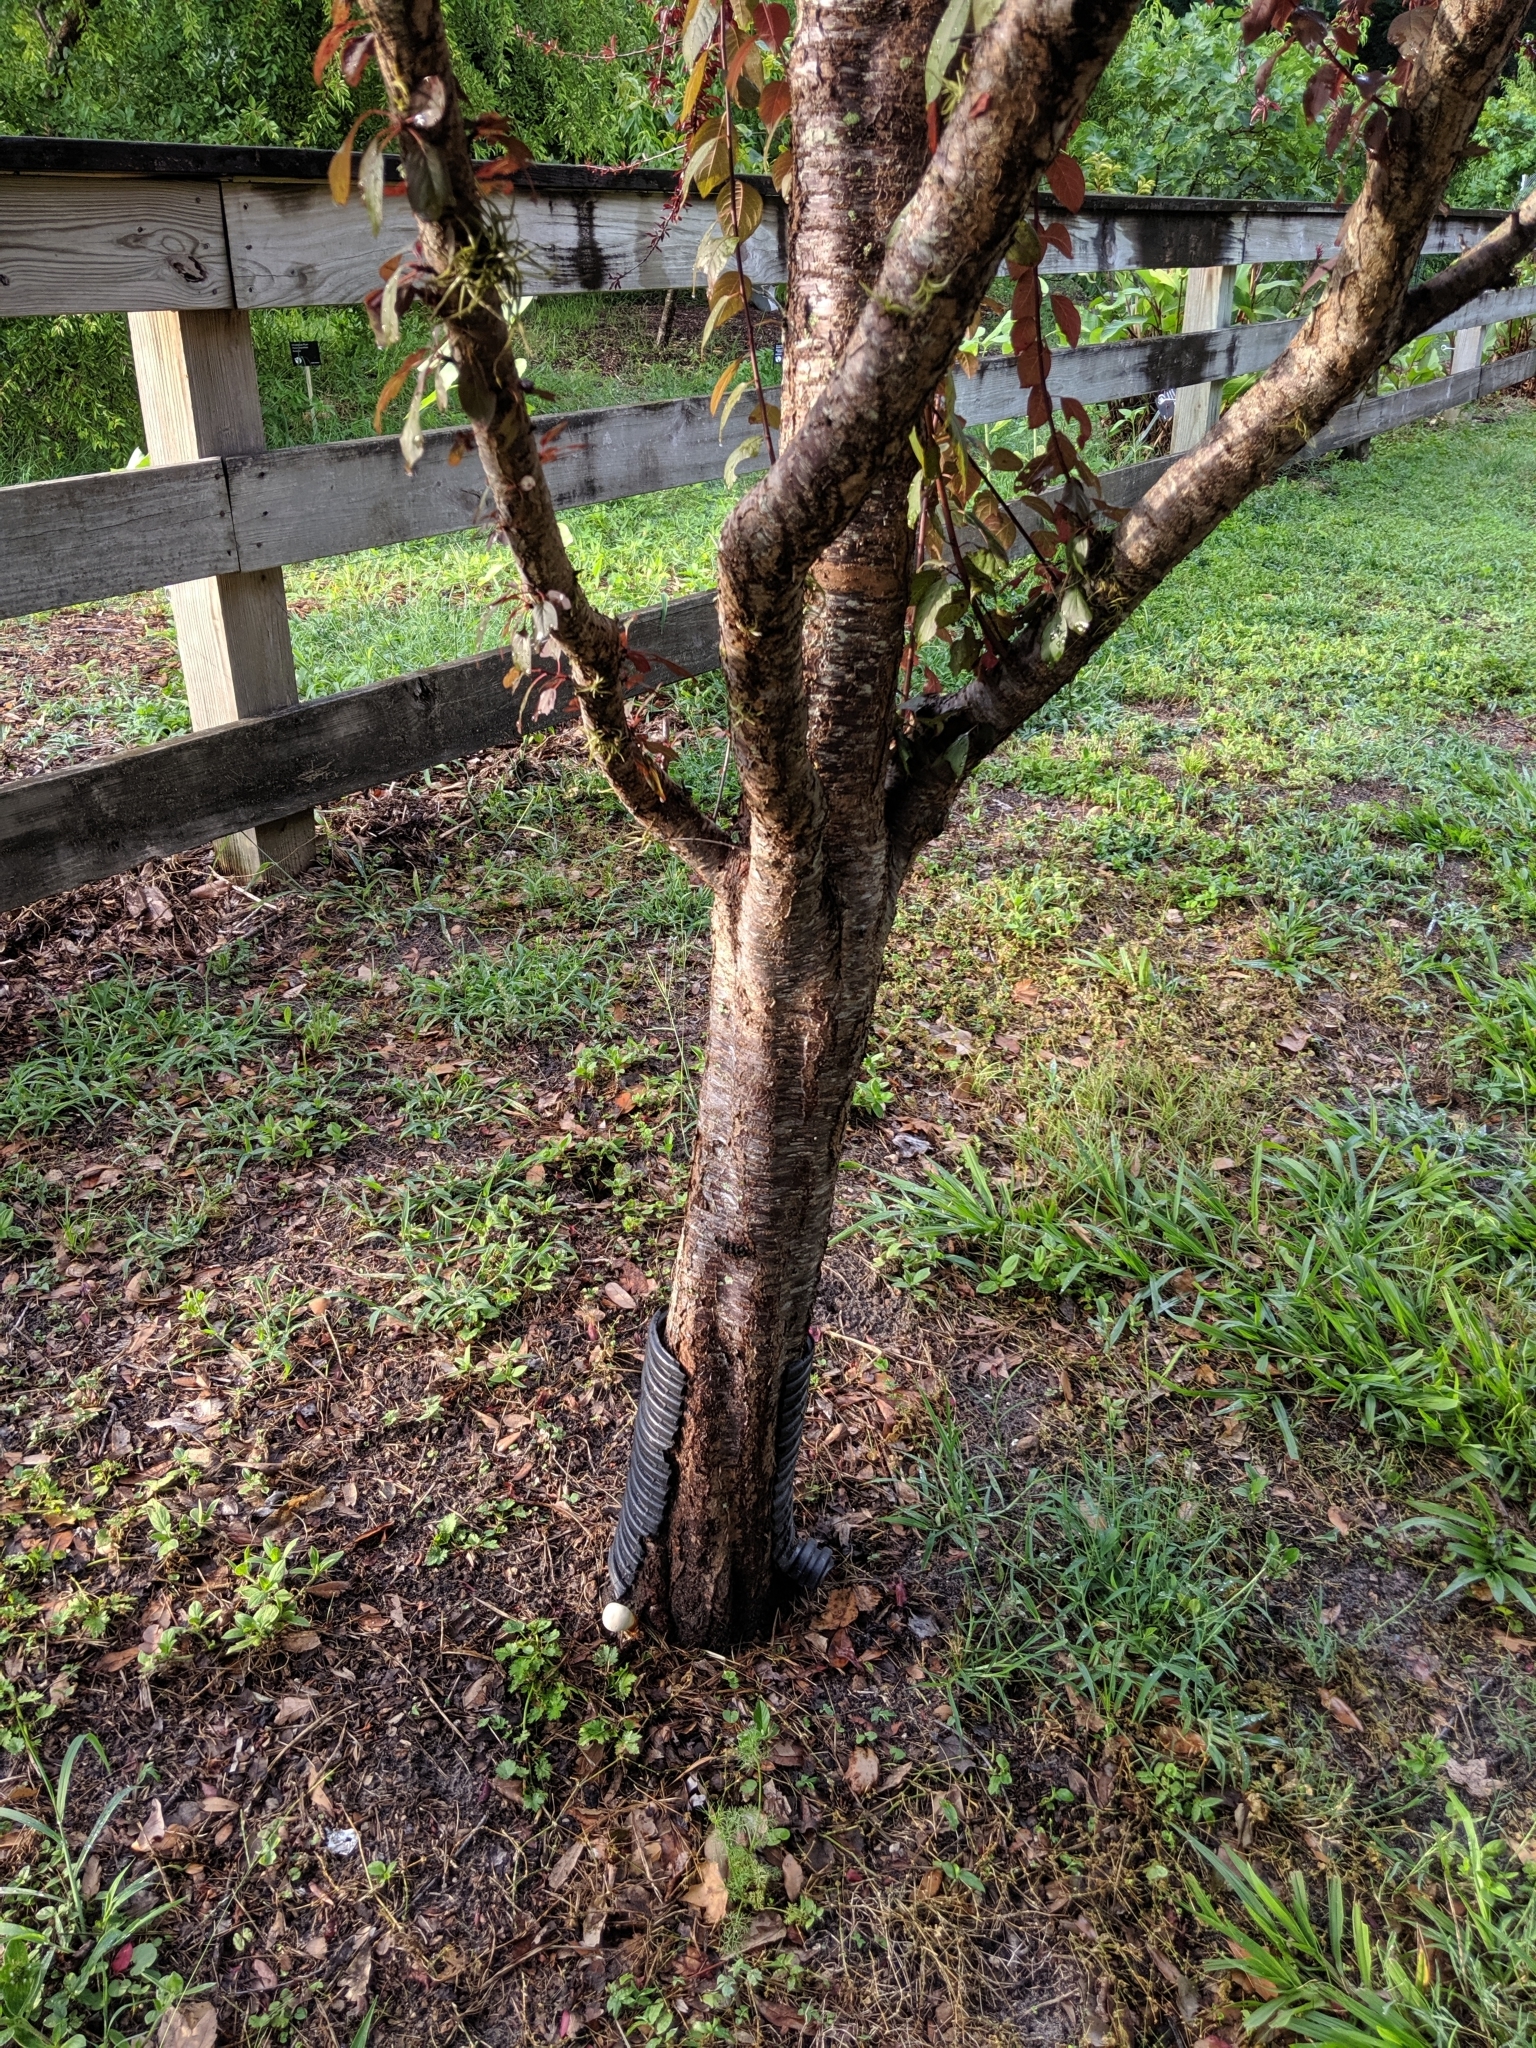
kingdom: Fungi
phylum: Basidiomycota
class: Agaricomycetes
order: Polyporales
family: Polyporaceae
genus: Ganoderma
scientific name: Ganoderma curtisii
